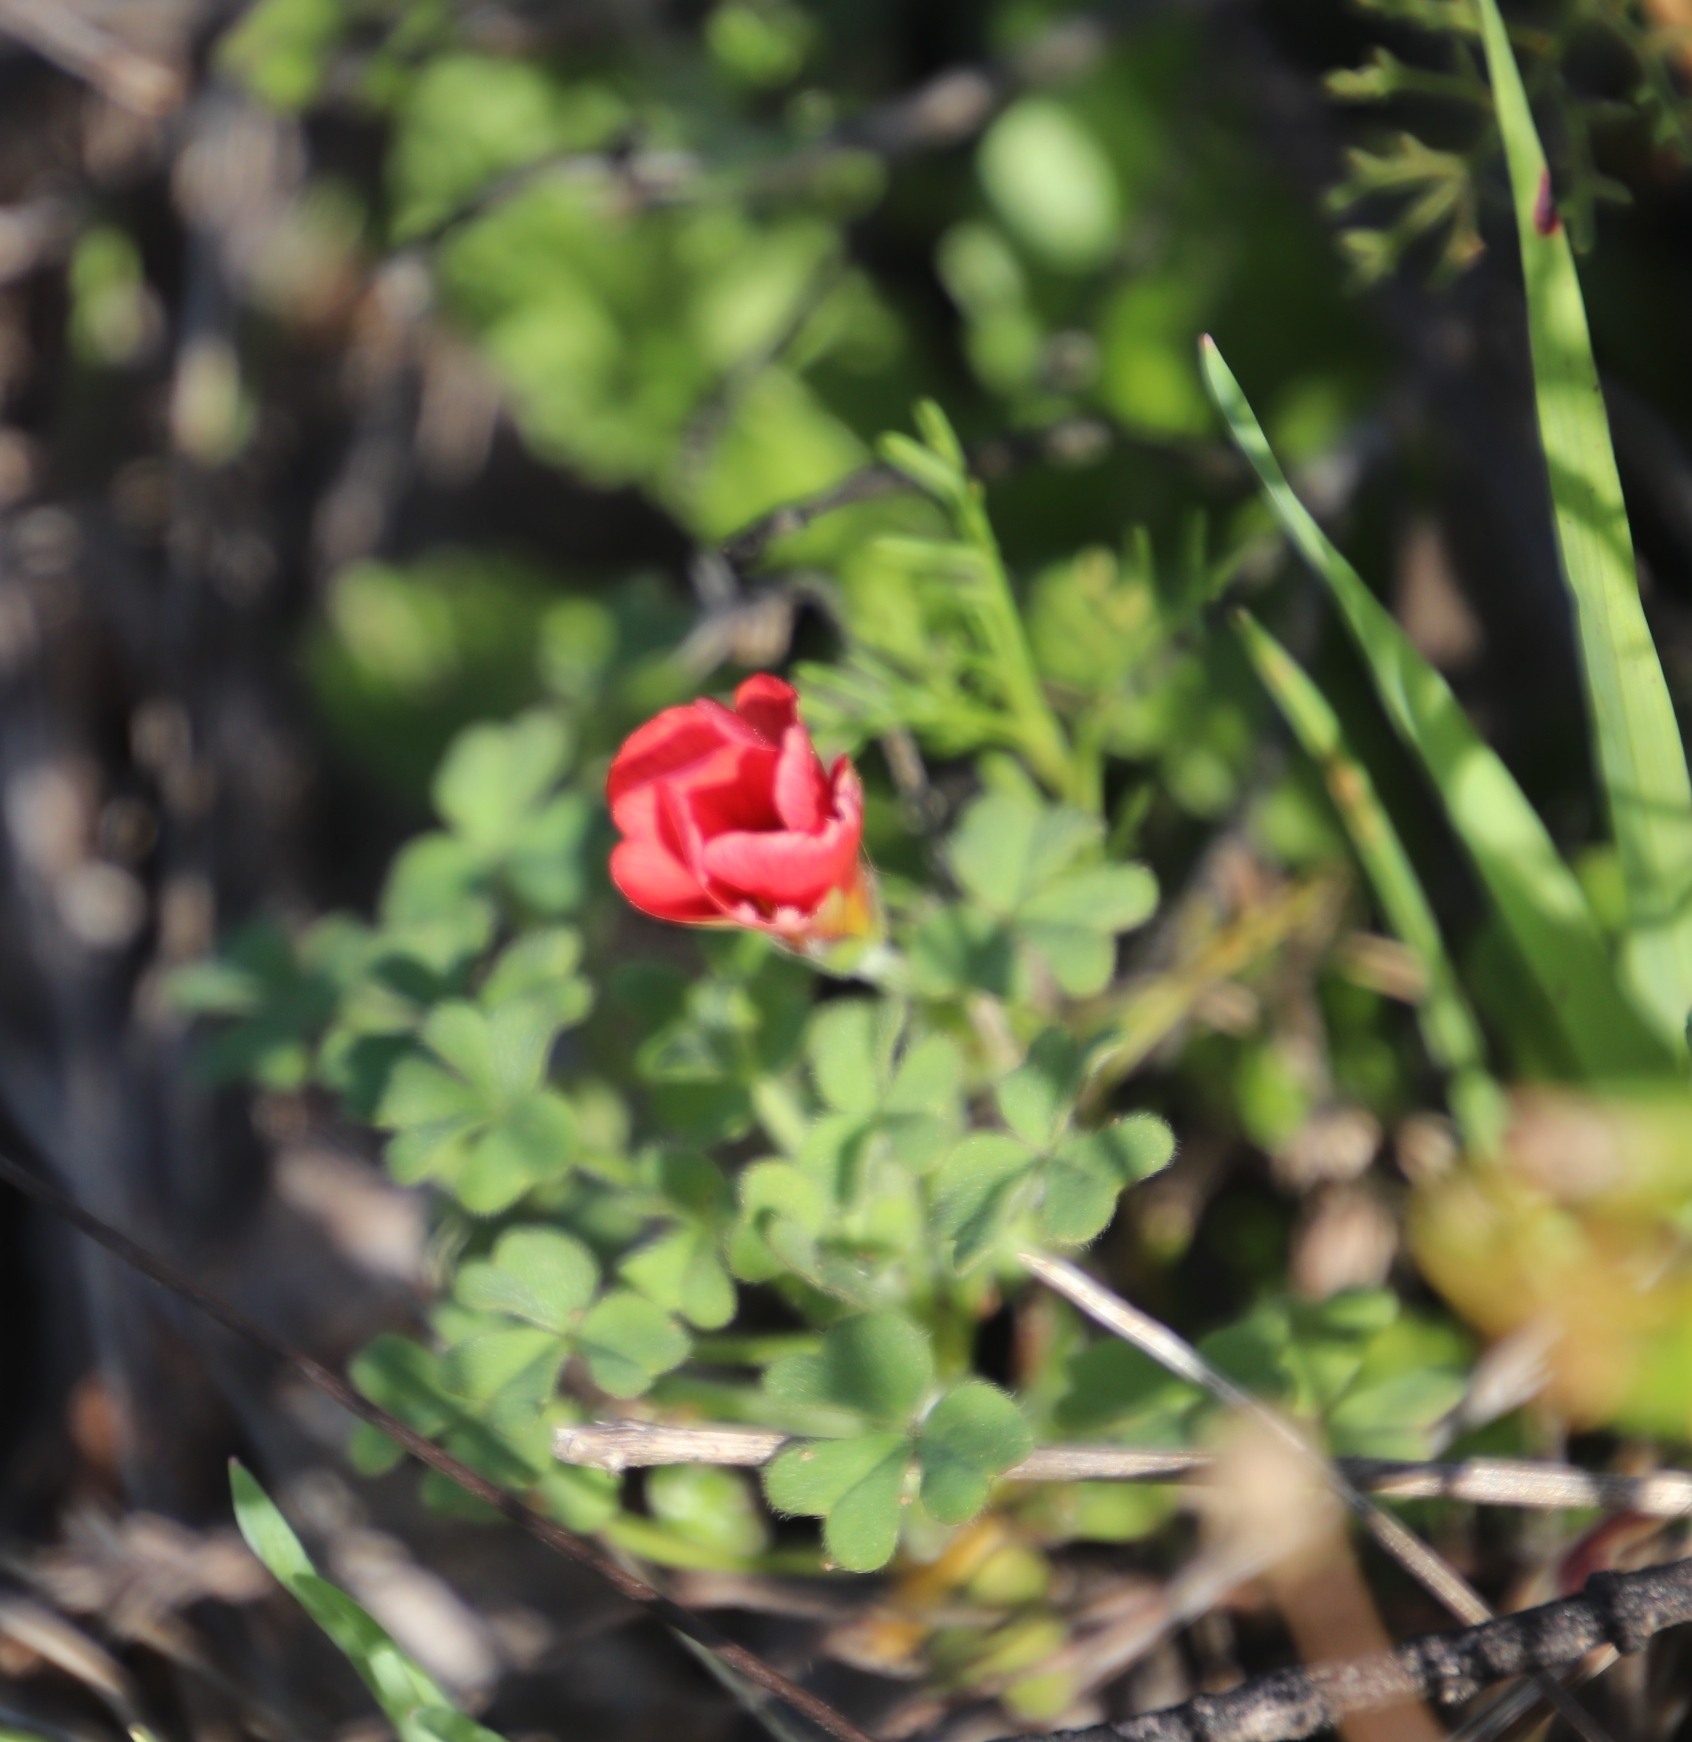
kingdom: Plantae
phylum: Tracheophyta
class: Magnoliopsida
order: Oxalidales
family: Oxalidaceae
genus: Oxalis
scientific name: Oxalis obtusa
